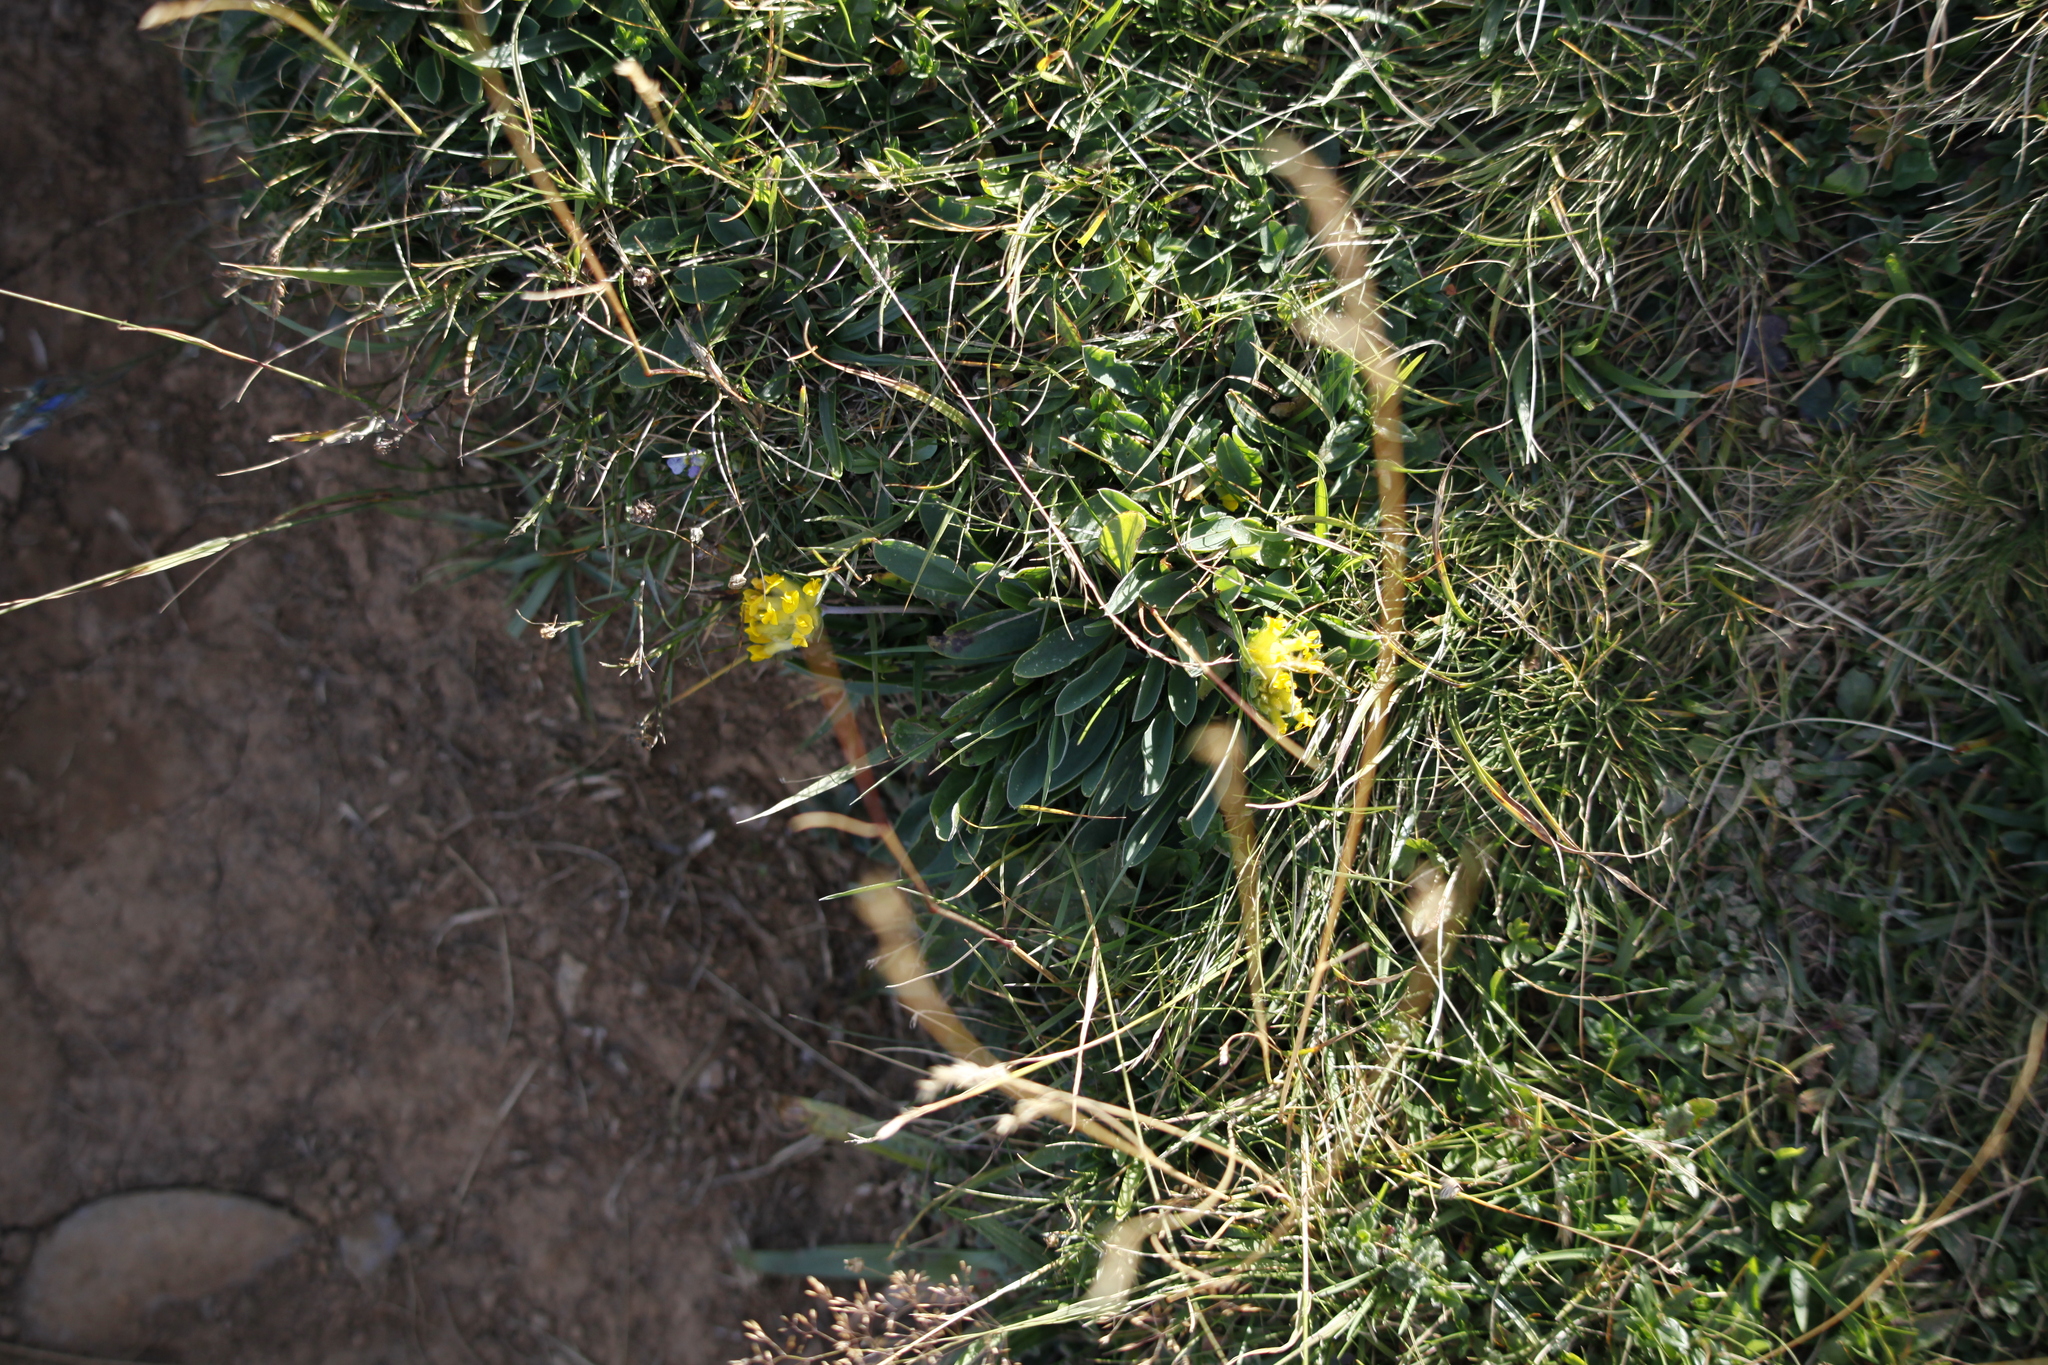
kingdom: Plantae
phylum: Tracheophyta
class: Magnoliopsida
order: Fabales
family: Fabaceae
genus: Anthyllis
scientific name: Anthyllis vulneraria
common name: Kidney vetch
